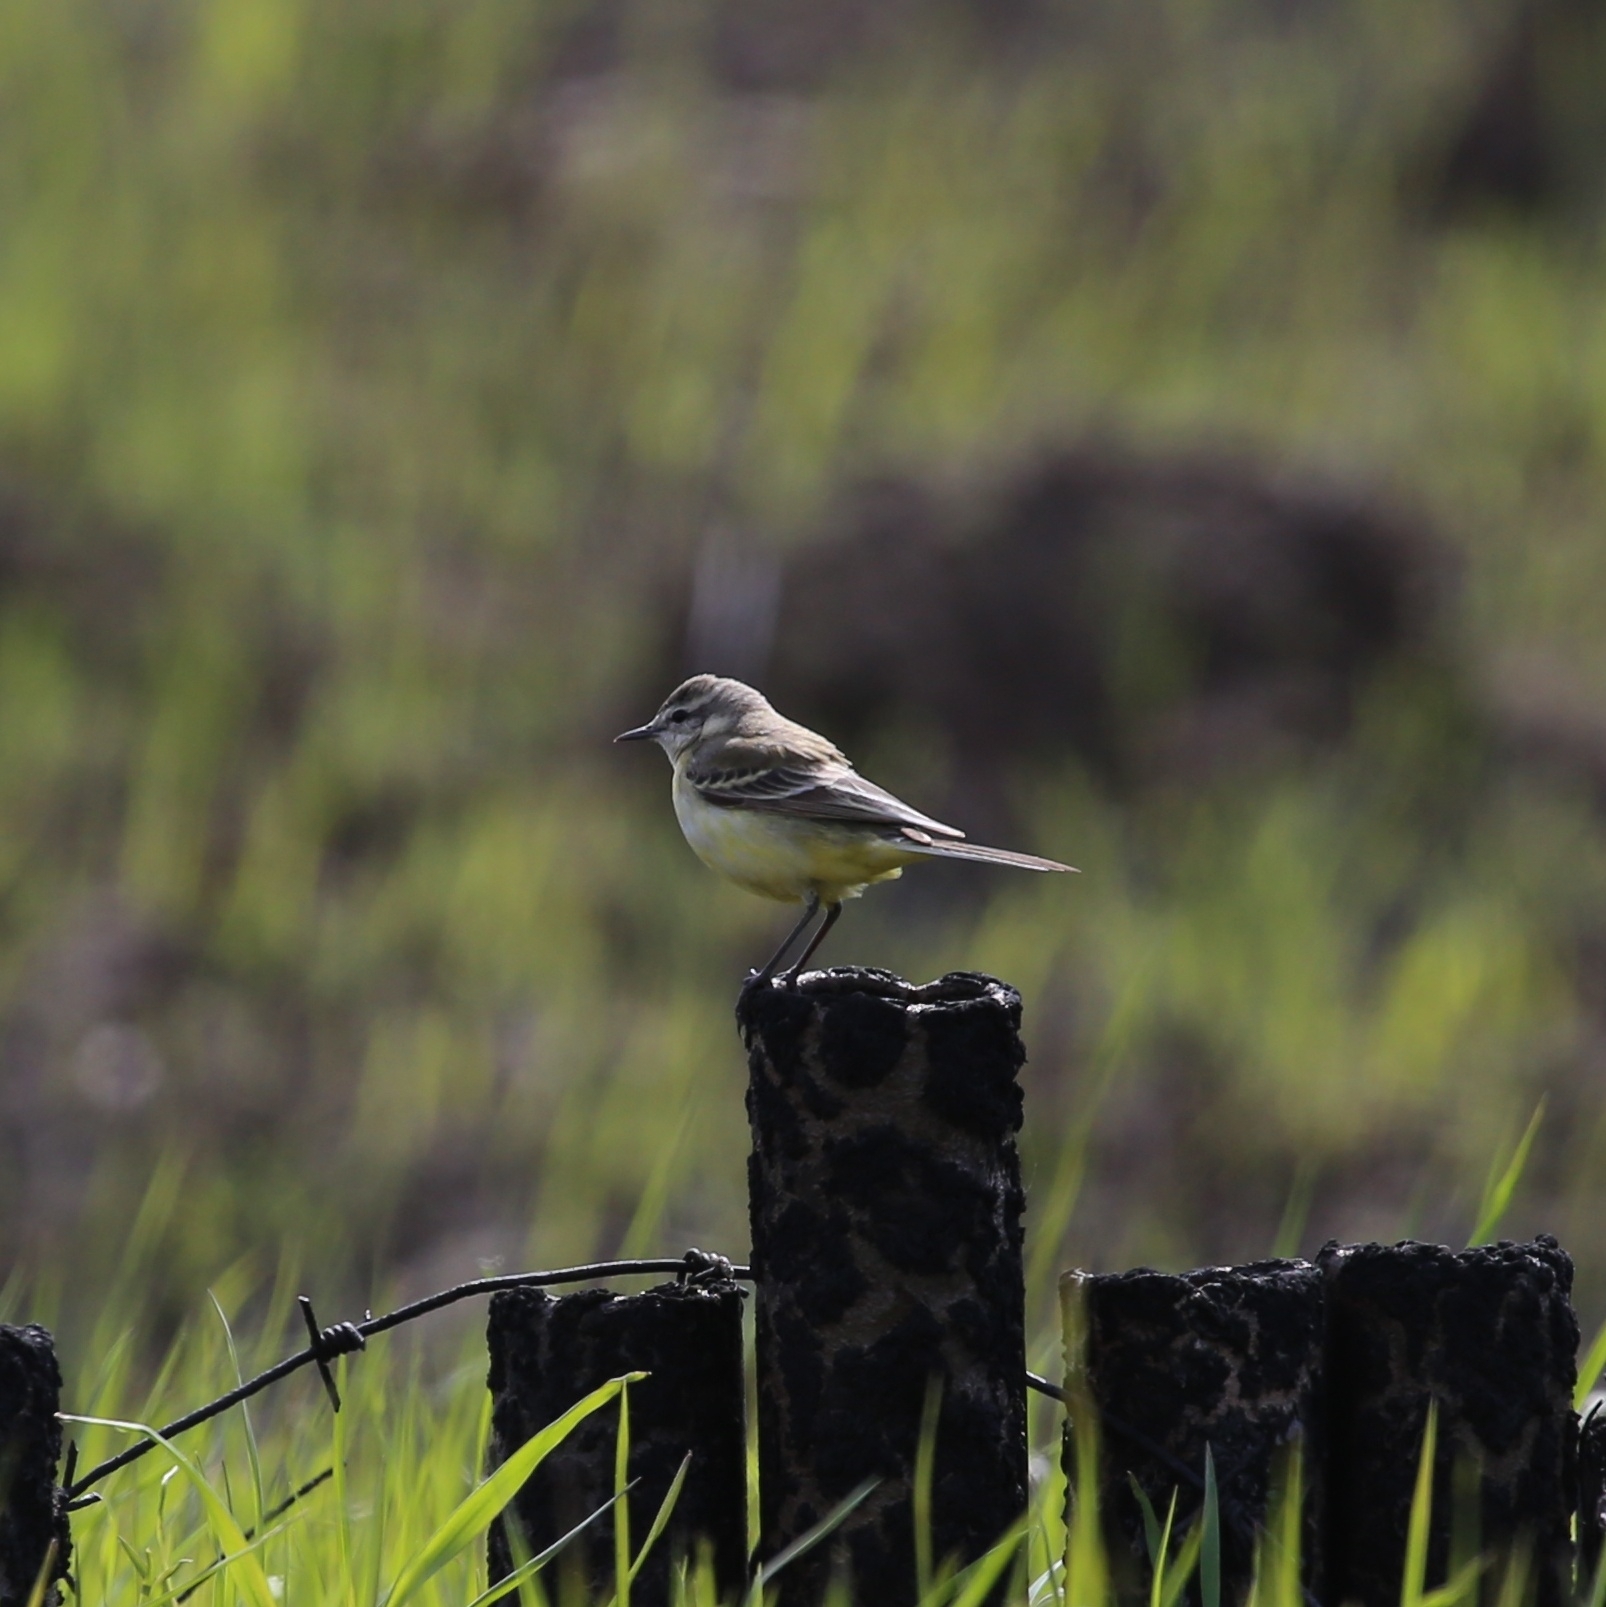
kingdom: Animalia
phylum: Chordata
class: Aves
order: Passeriformes
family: Motacillidae
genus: Motacilla
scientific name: Motacilla flava
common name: Western yellow wagtail
